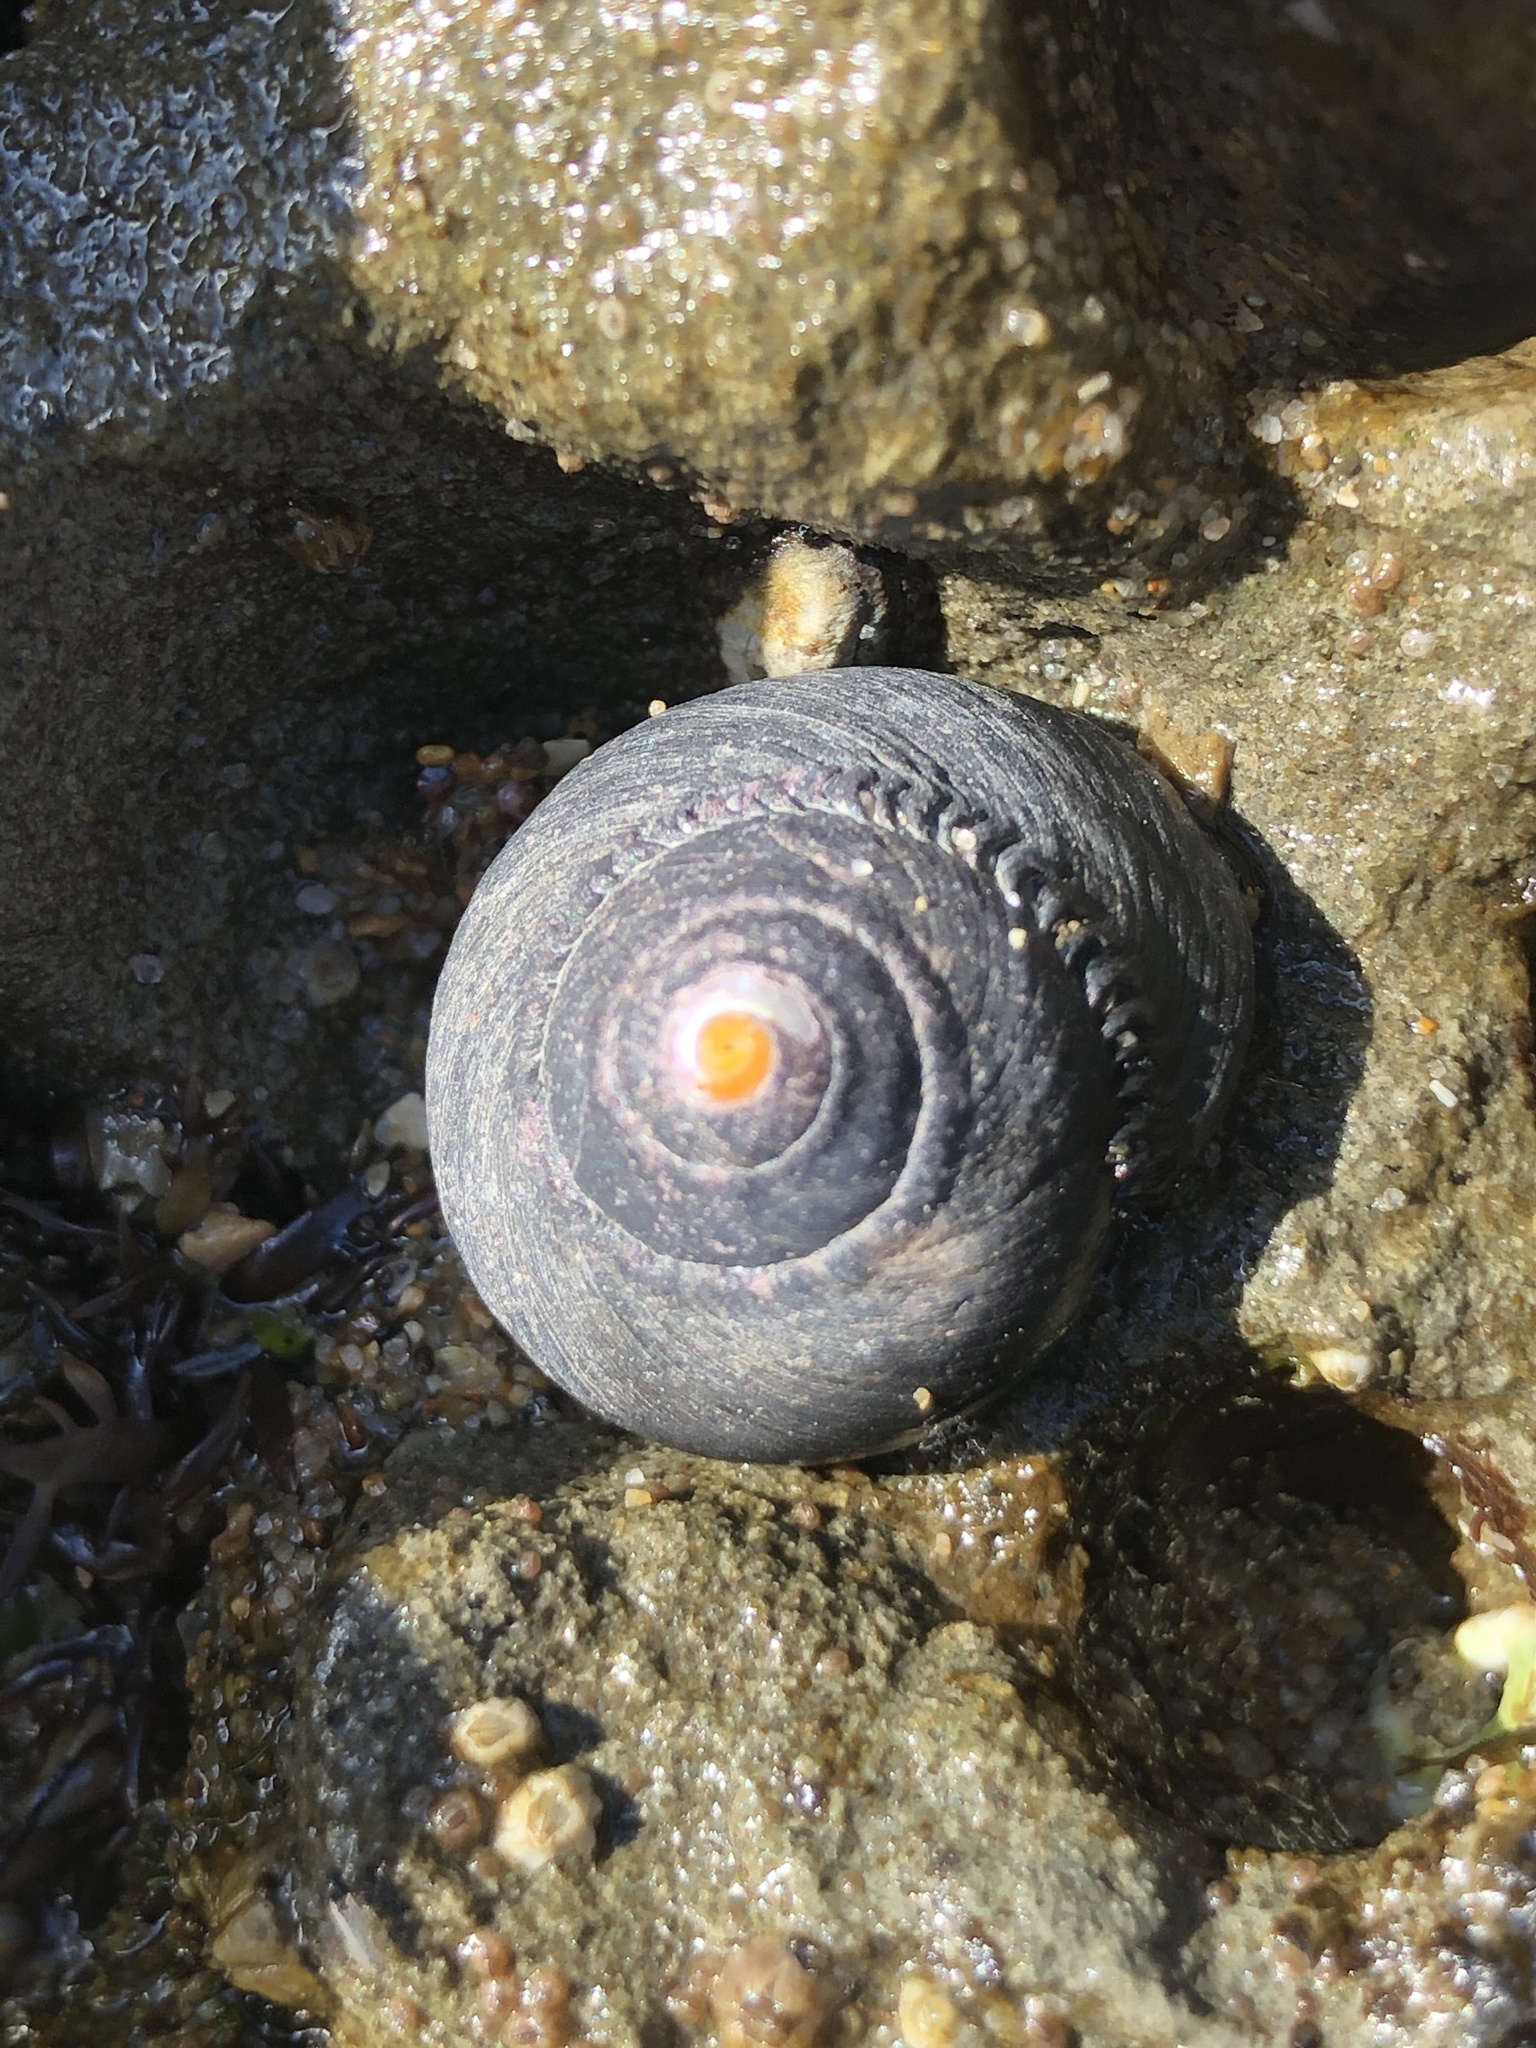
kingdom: Animalia
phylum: Mollusca
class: Gastropoda
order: Trochida
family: Tegulidae
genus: Tegula
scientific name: Tegula funebralis
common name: Black tegula
